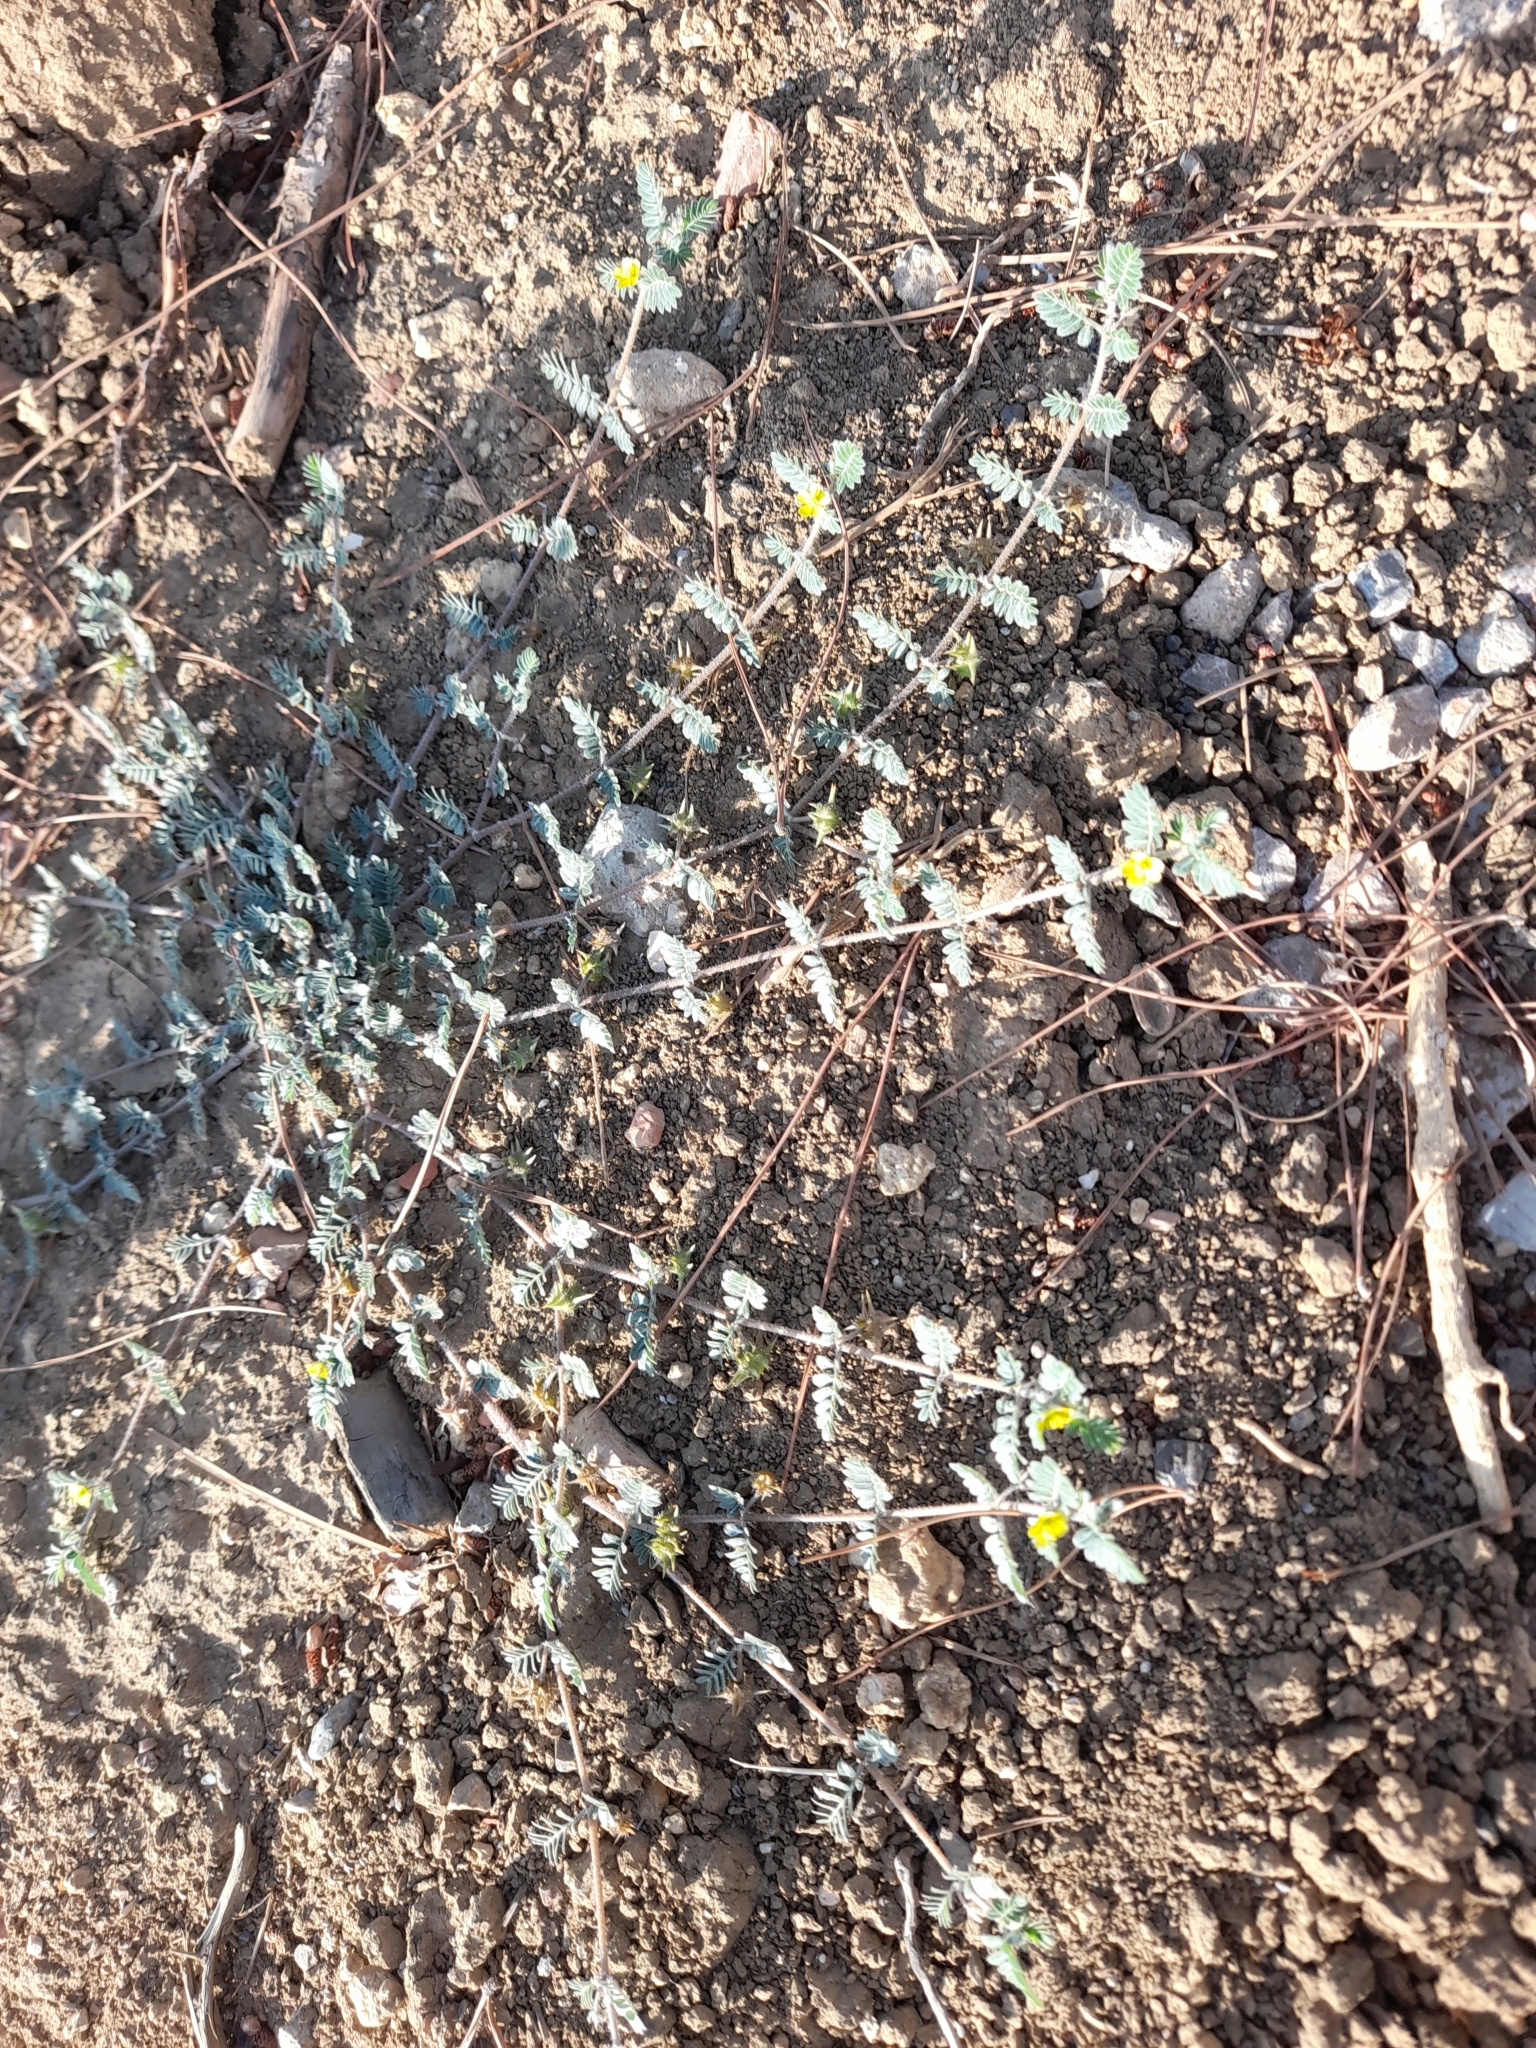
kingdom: Plantae
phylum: Tracheophyta
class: Magnoliopsida
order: Zygophyllales
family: Zygophyllaceae
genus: Tribulus
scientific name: Tribulus terrestris
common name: Puncturevine
